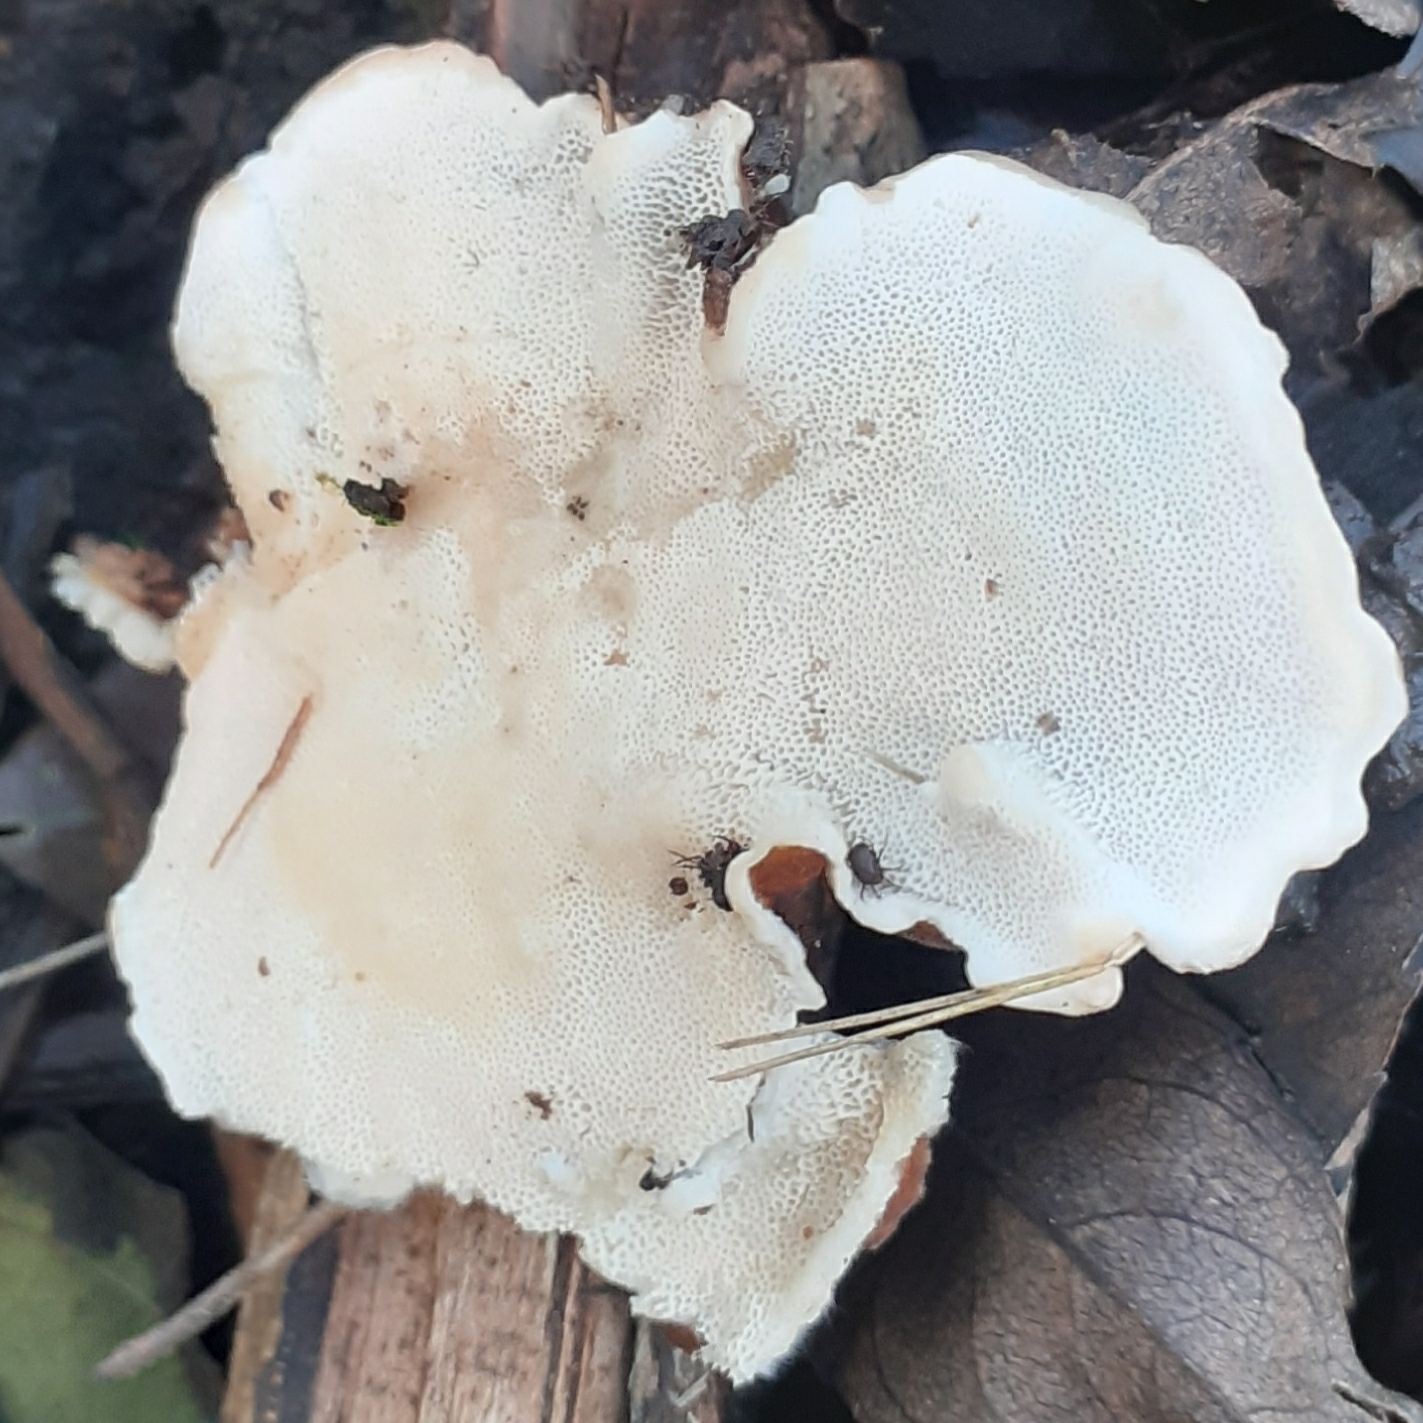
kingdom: Fungi
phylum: Basidiomycota
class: Agaricomycetes
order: Polyporales
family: Polyporaceae
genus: Trametes
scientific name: Trametes versicolor
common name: Turkeytail
